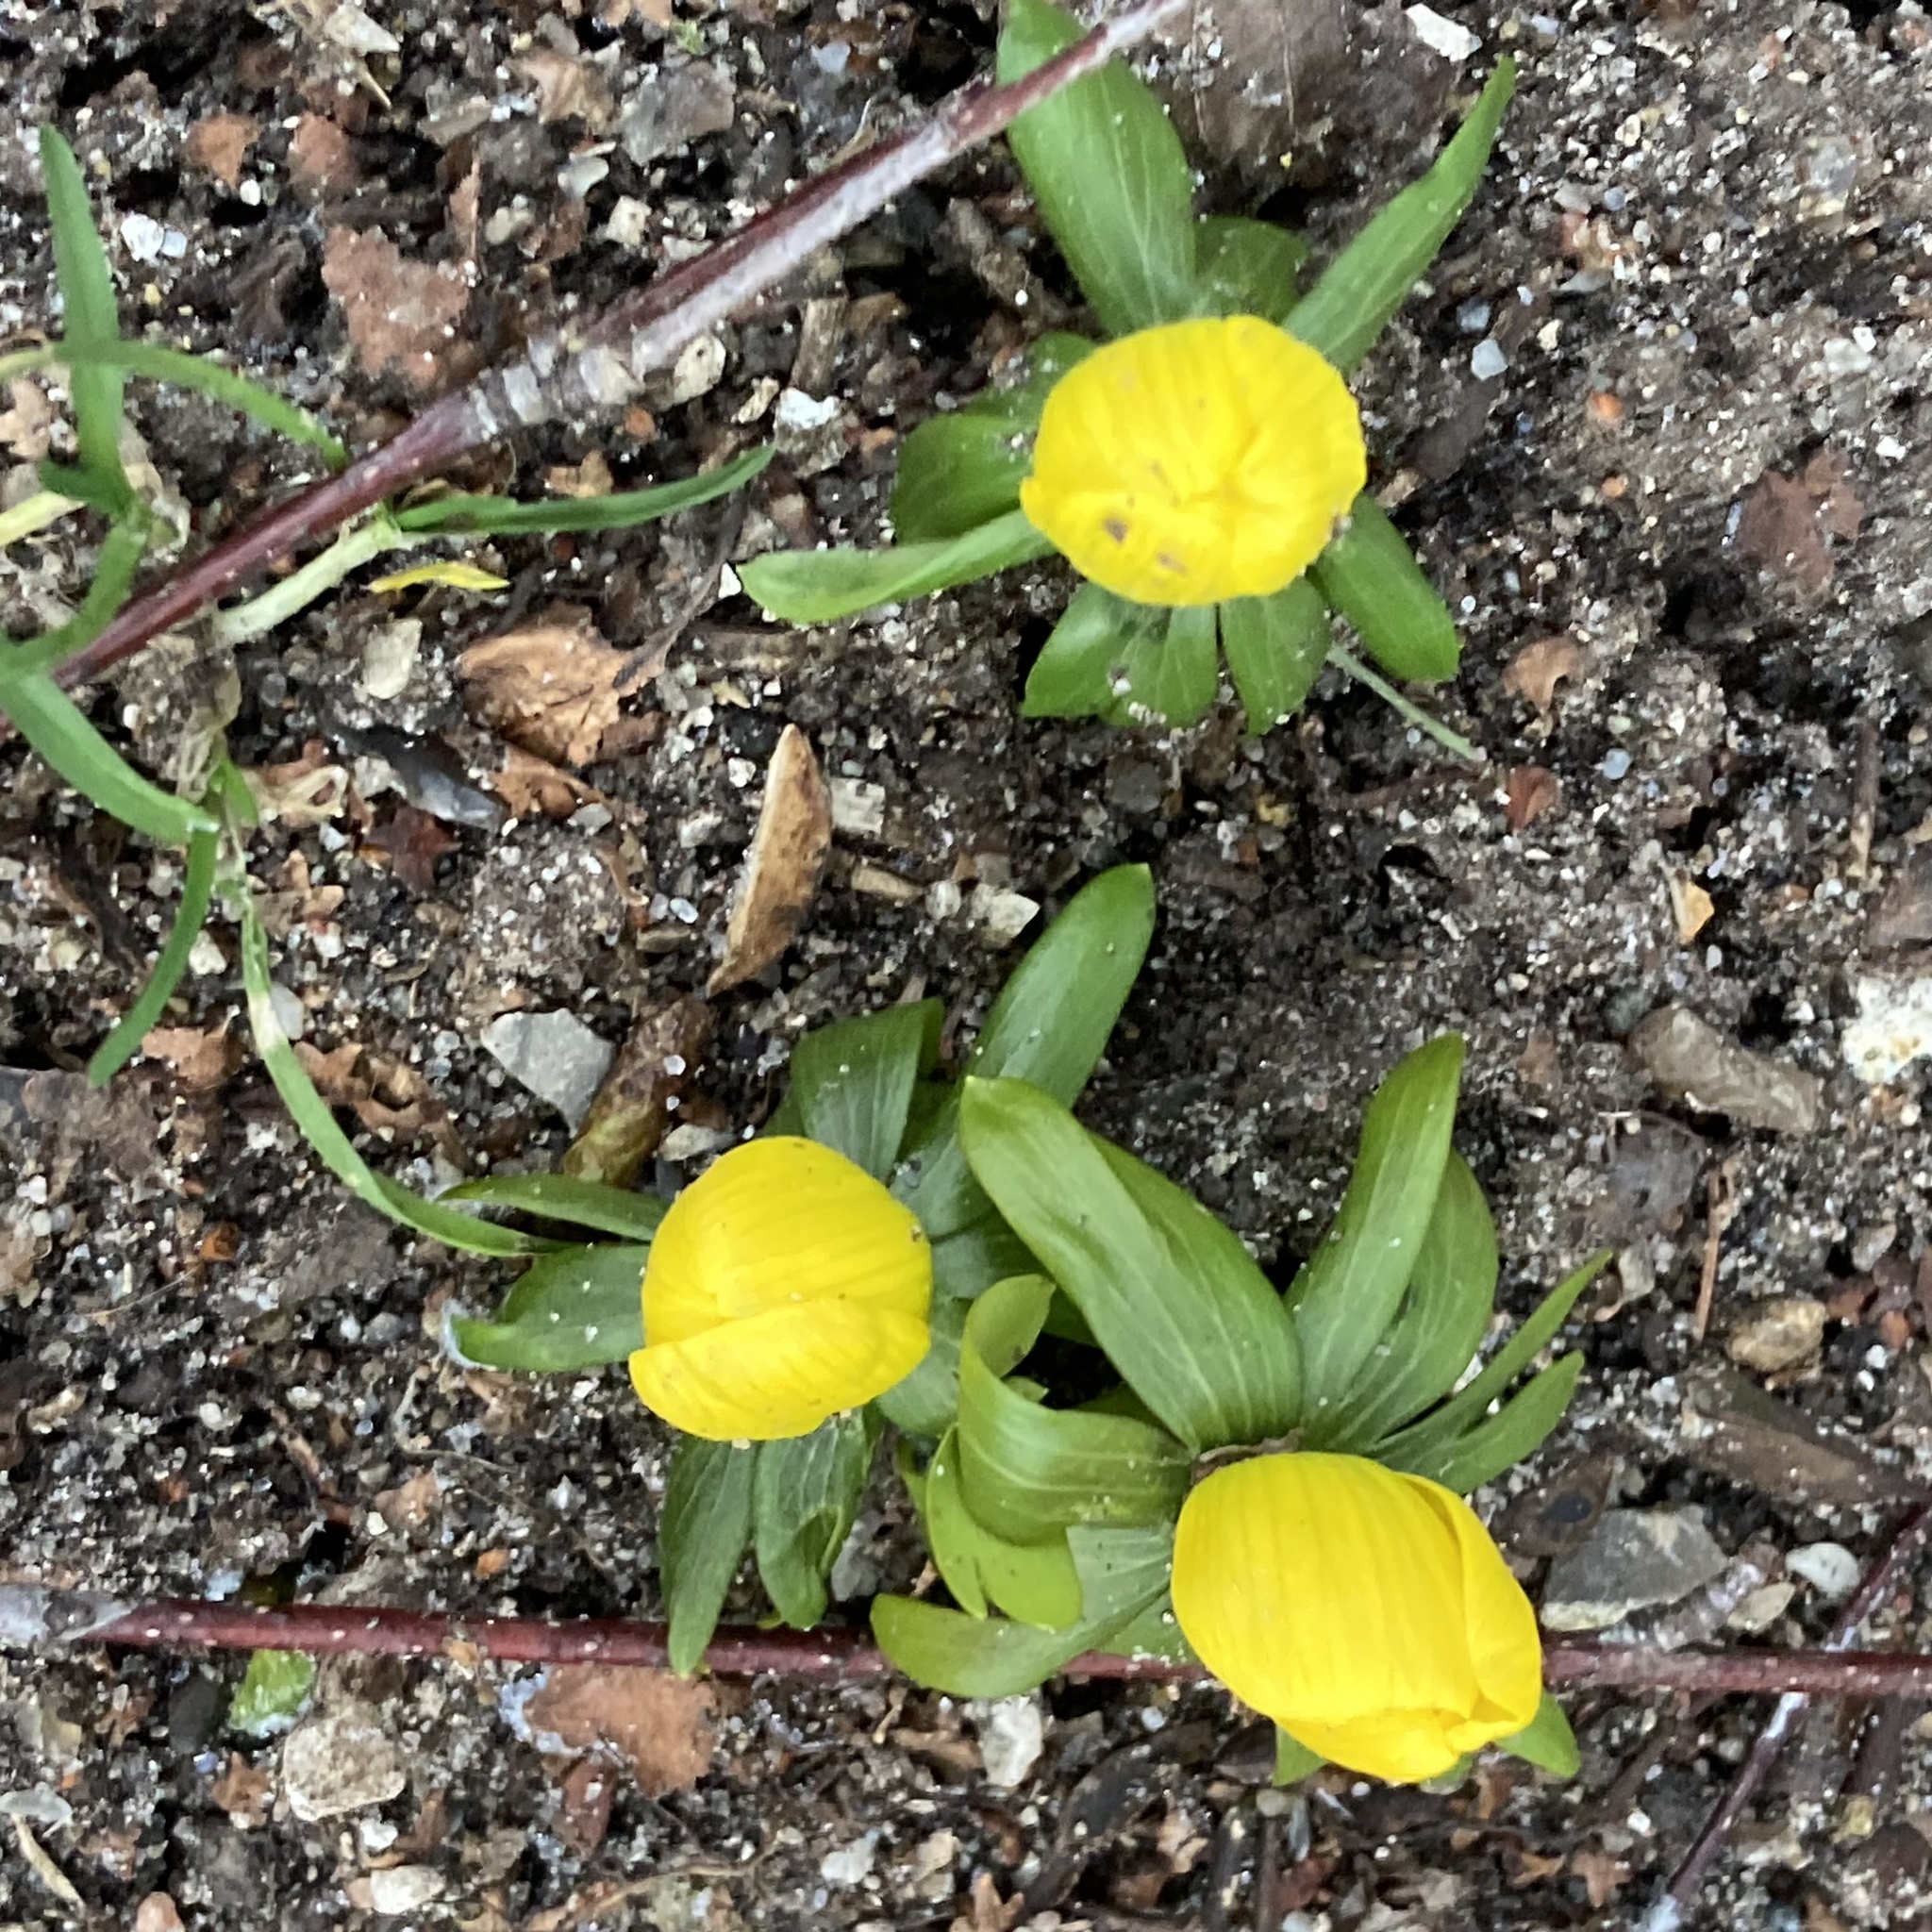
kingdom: Plantae
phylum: Tracheophyta
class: Magnoliopsida
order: Ranunculales
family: Ranunculaceae
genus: Eranthis
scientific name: Eranthis hyemalis
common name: Winter aconite
